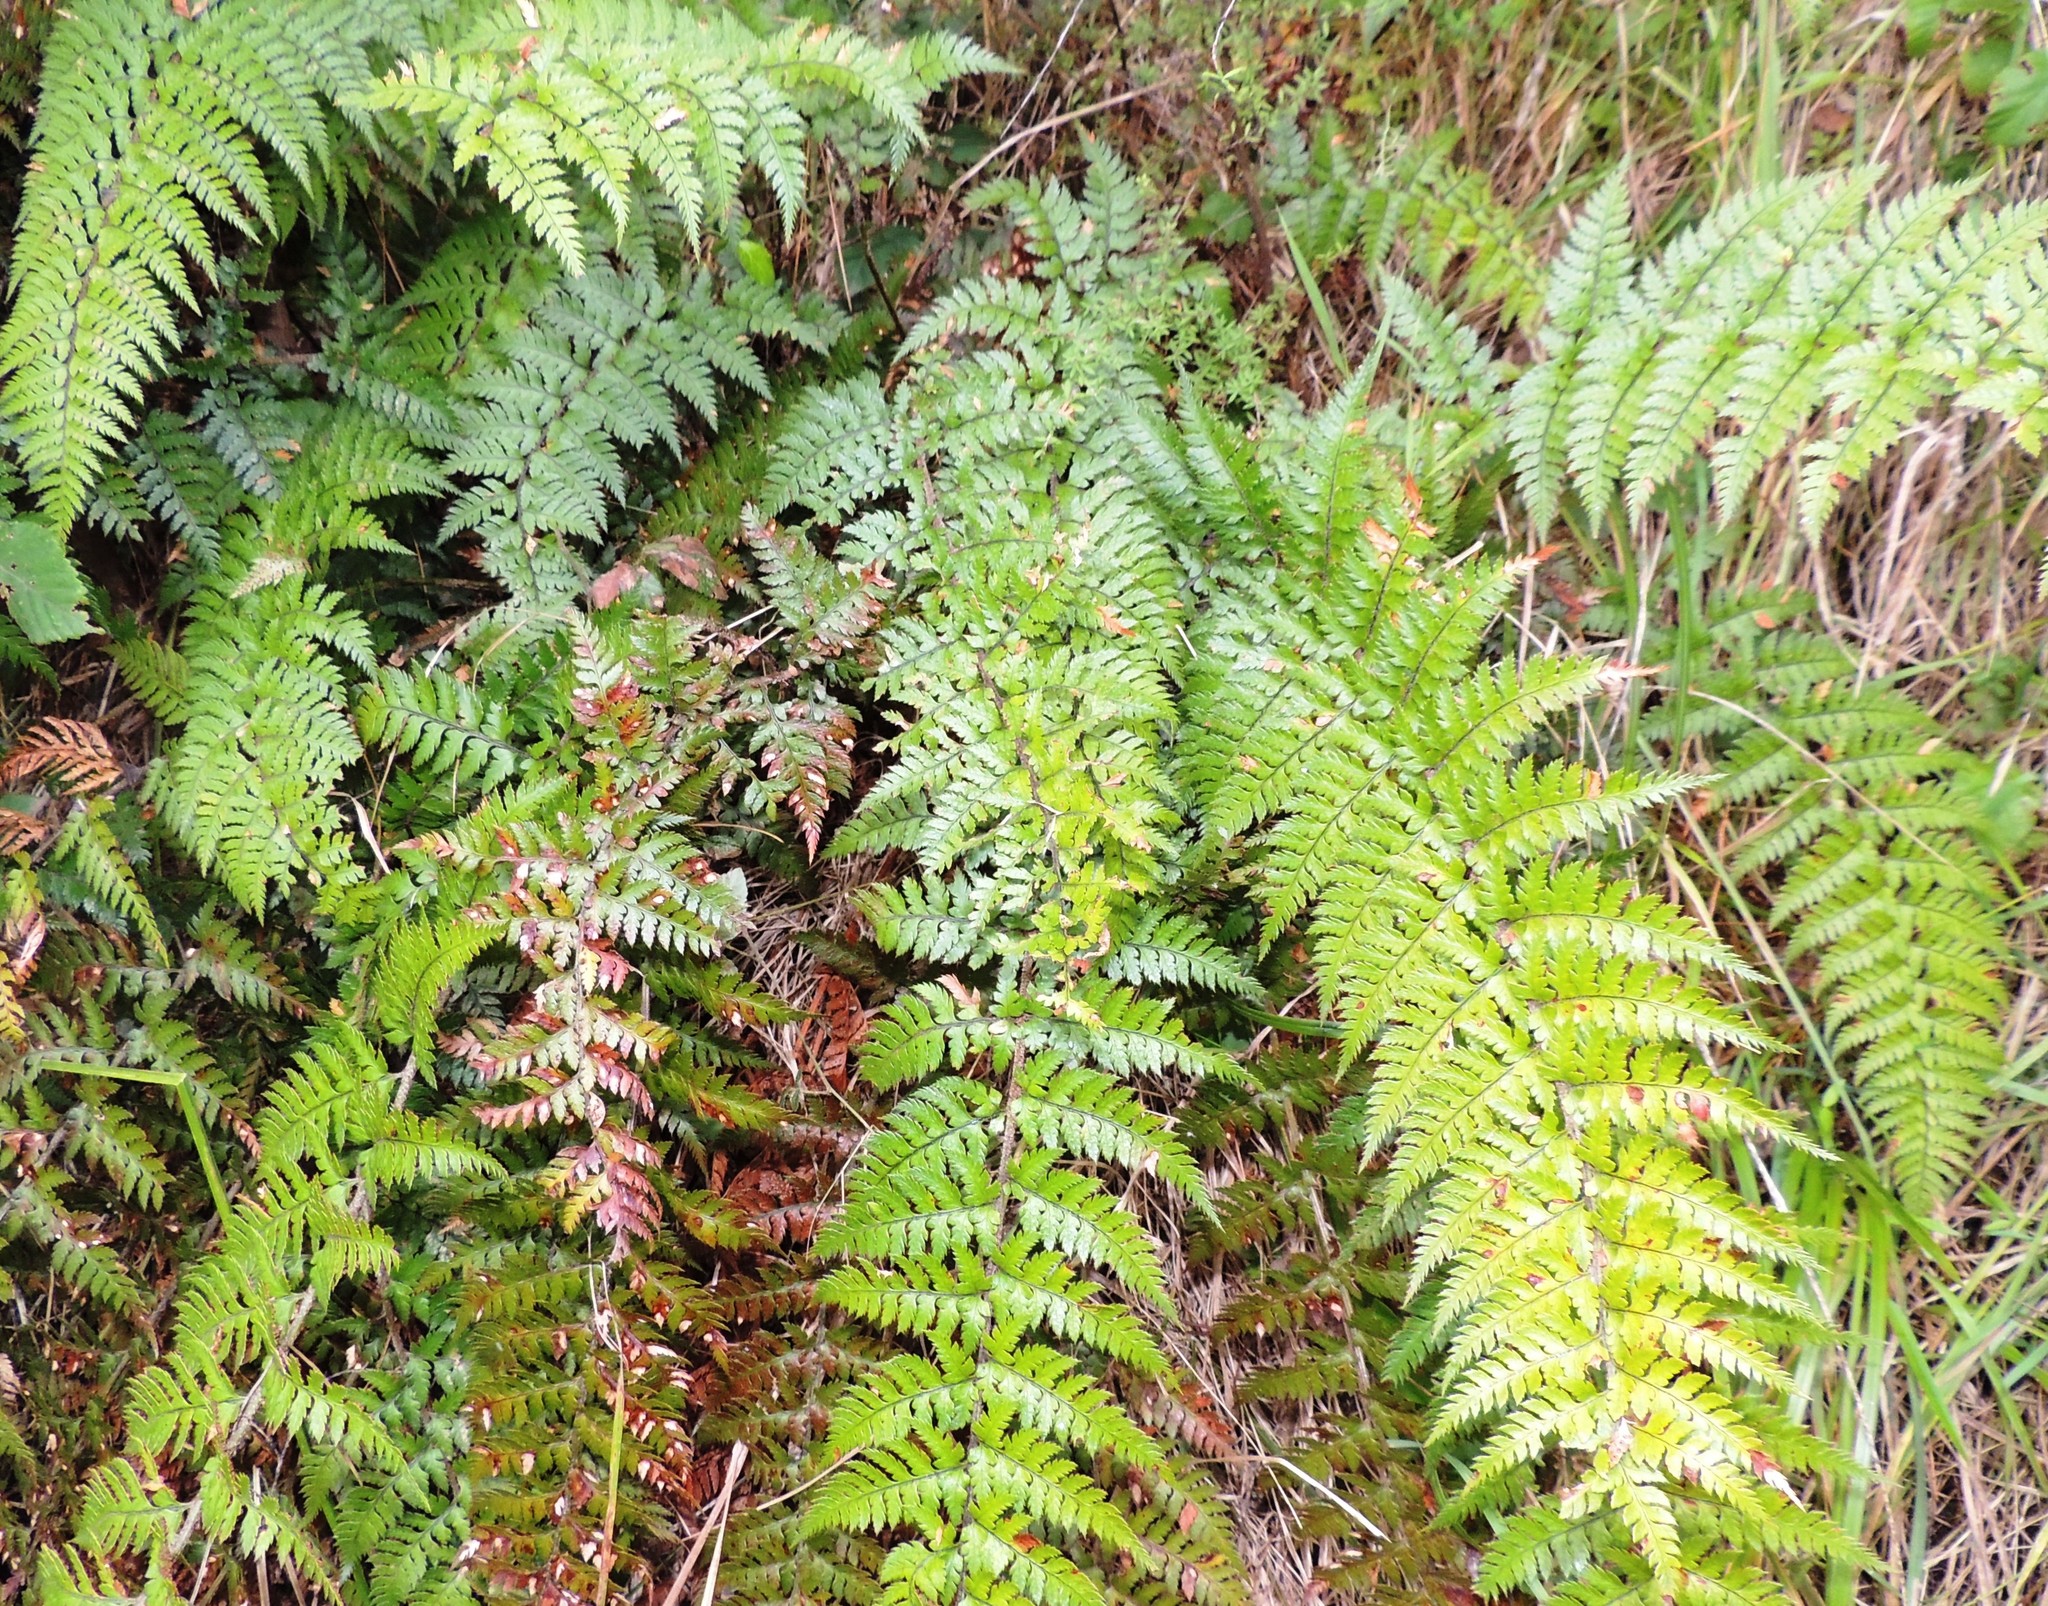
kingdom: Plantae
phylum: Tracheophyta
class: Polypodiopsida
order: Polypodiales
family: Dryopteridaceae
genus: Polystichum
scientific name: Polystichum neozelandicum
